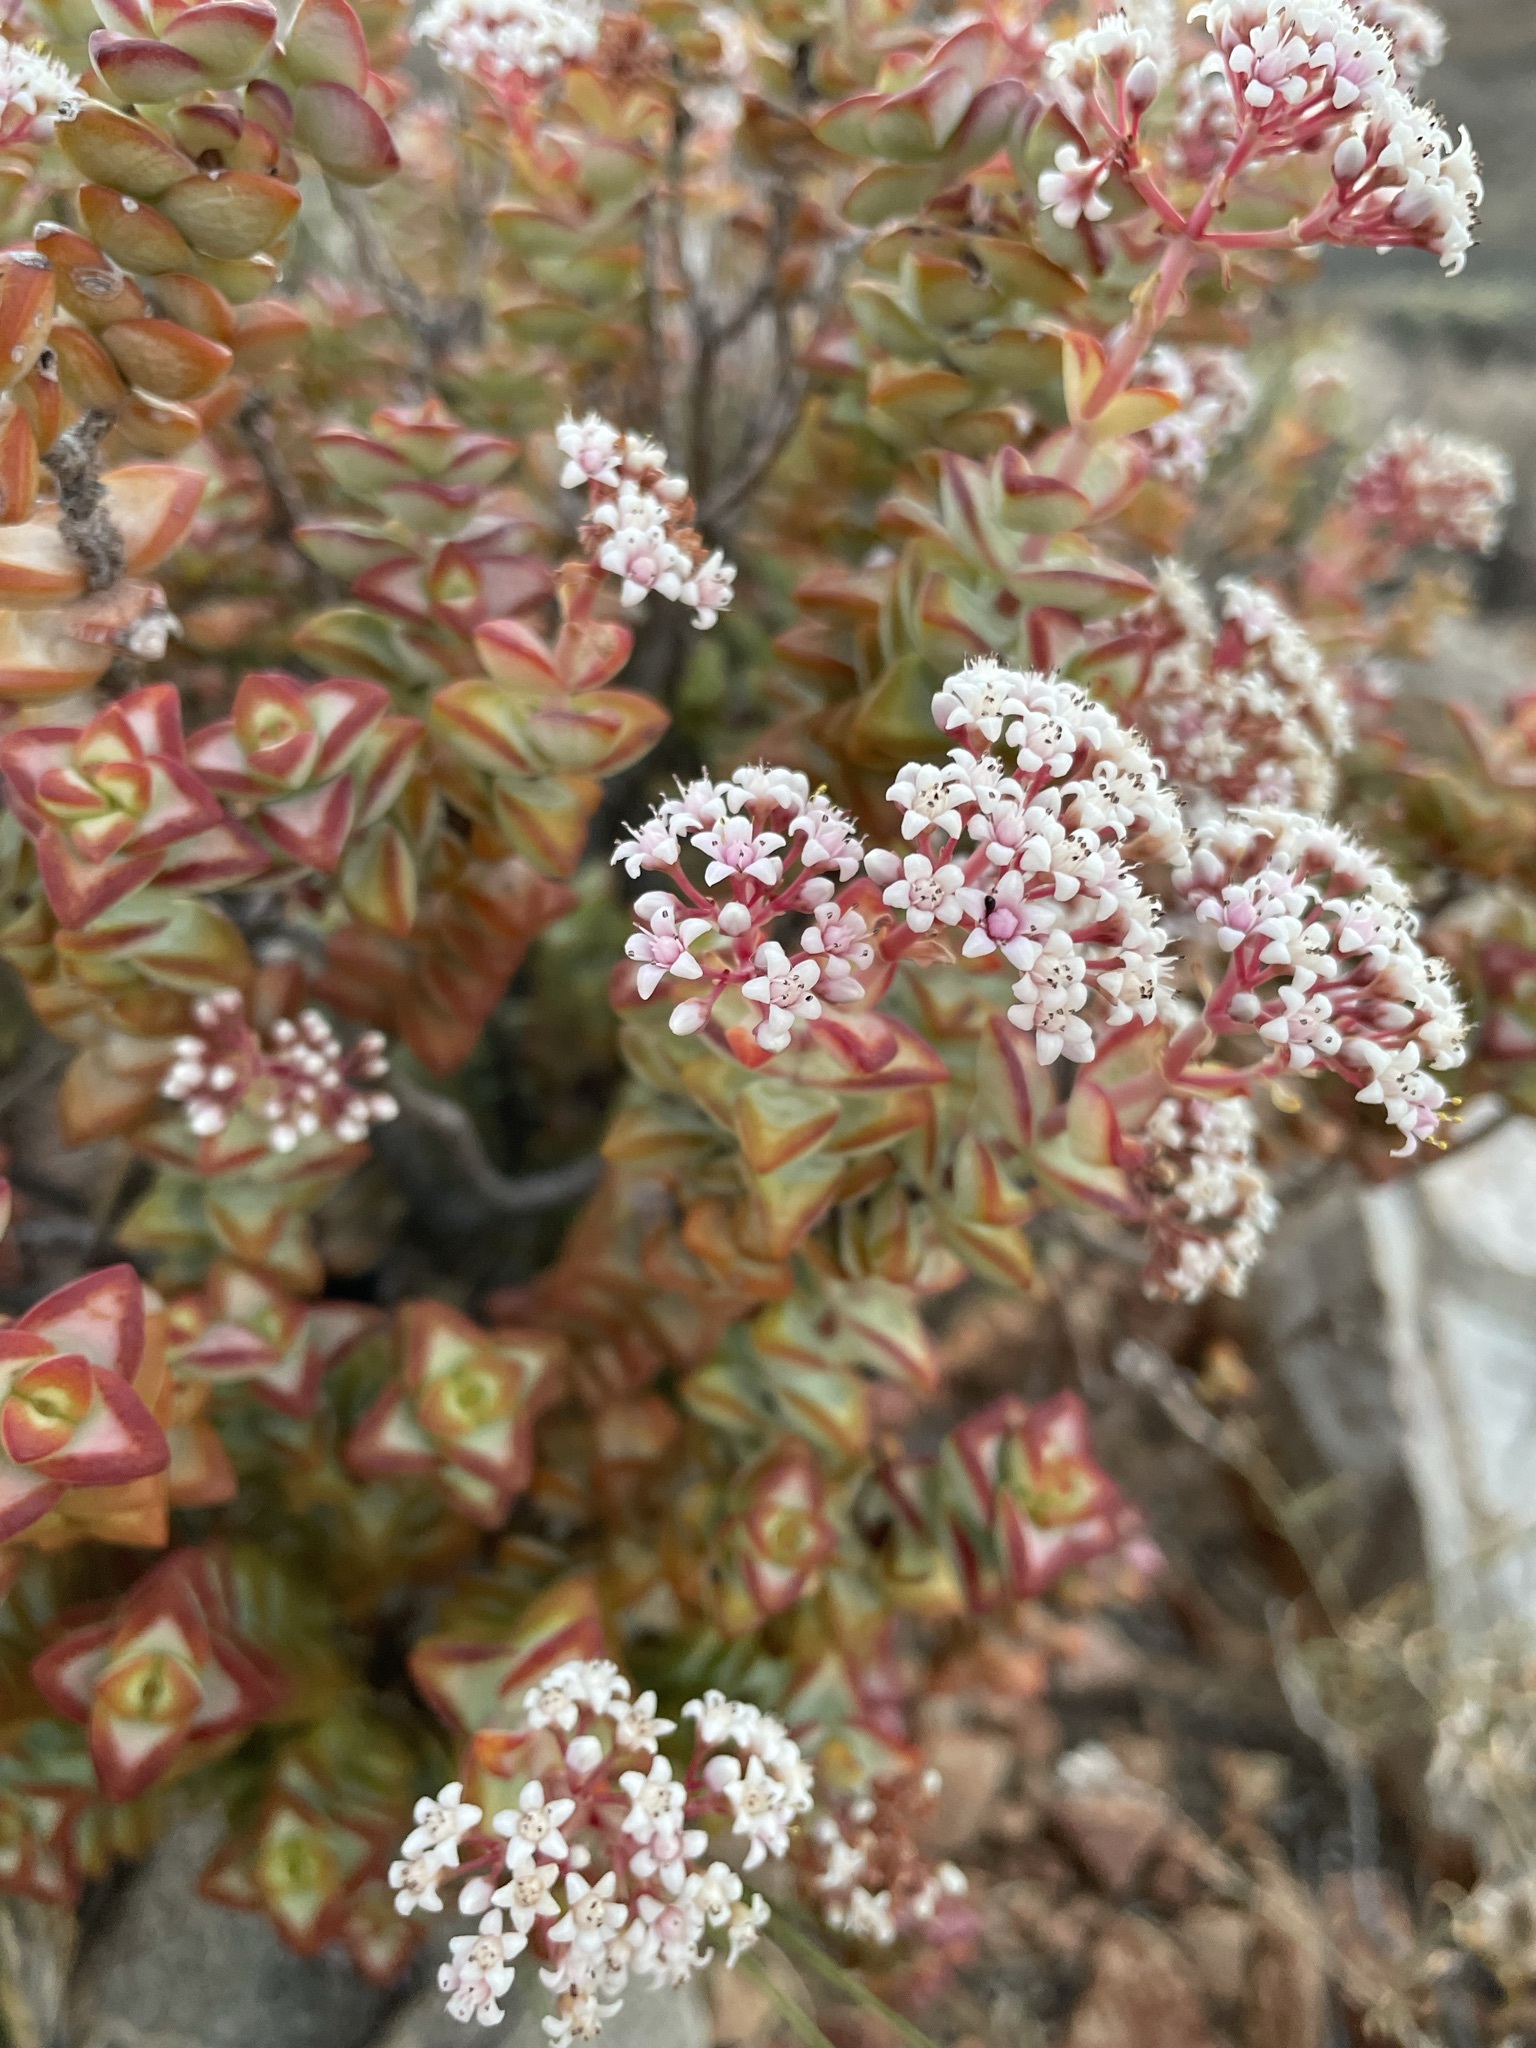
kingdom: Plantae
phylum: Tracheophyta
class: Magnoliopsida
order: Saxifragales
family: Crassulaceae
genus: Crassula
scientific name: Crassula rupestris
